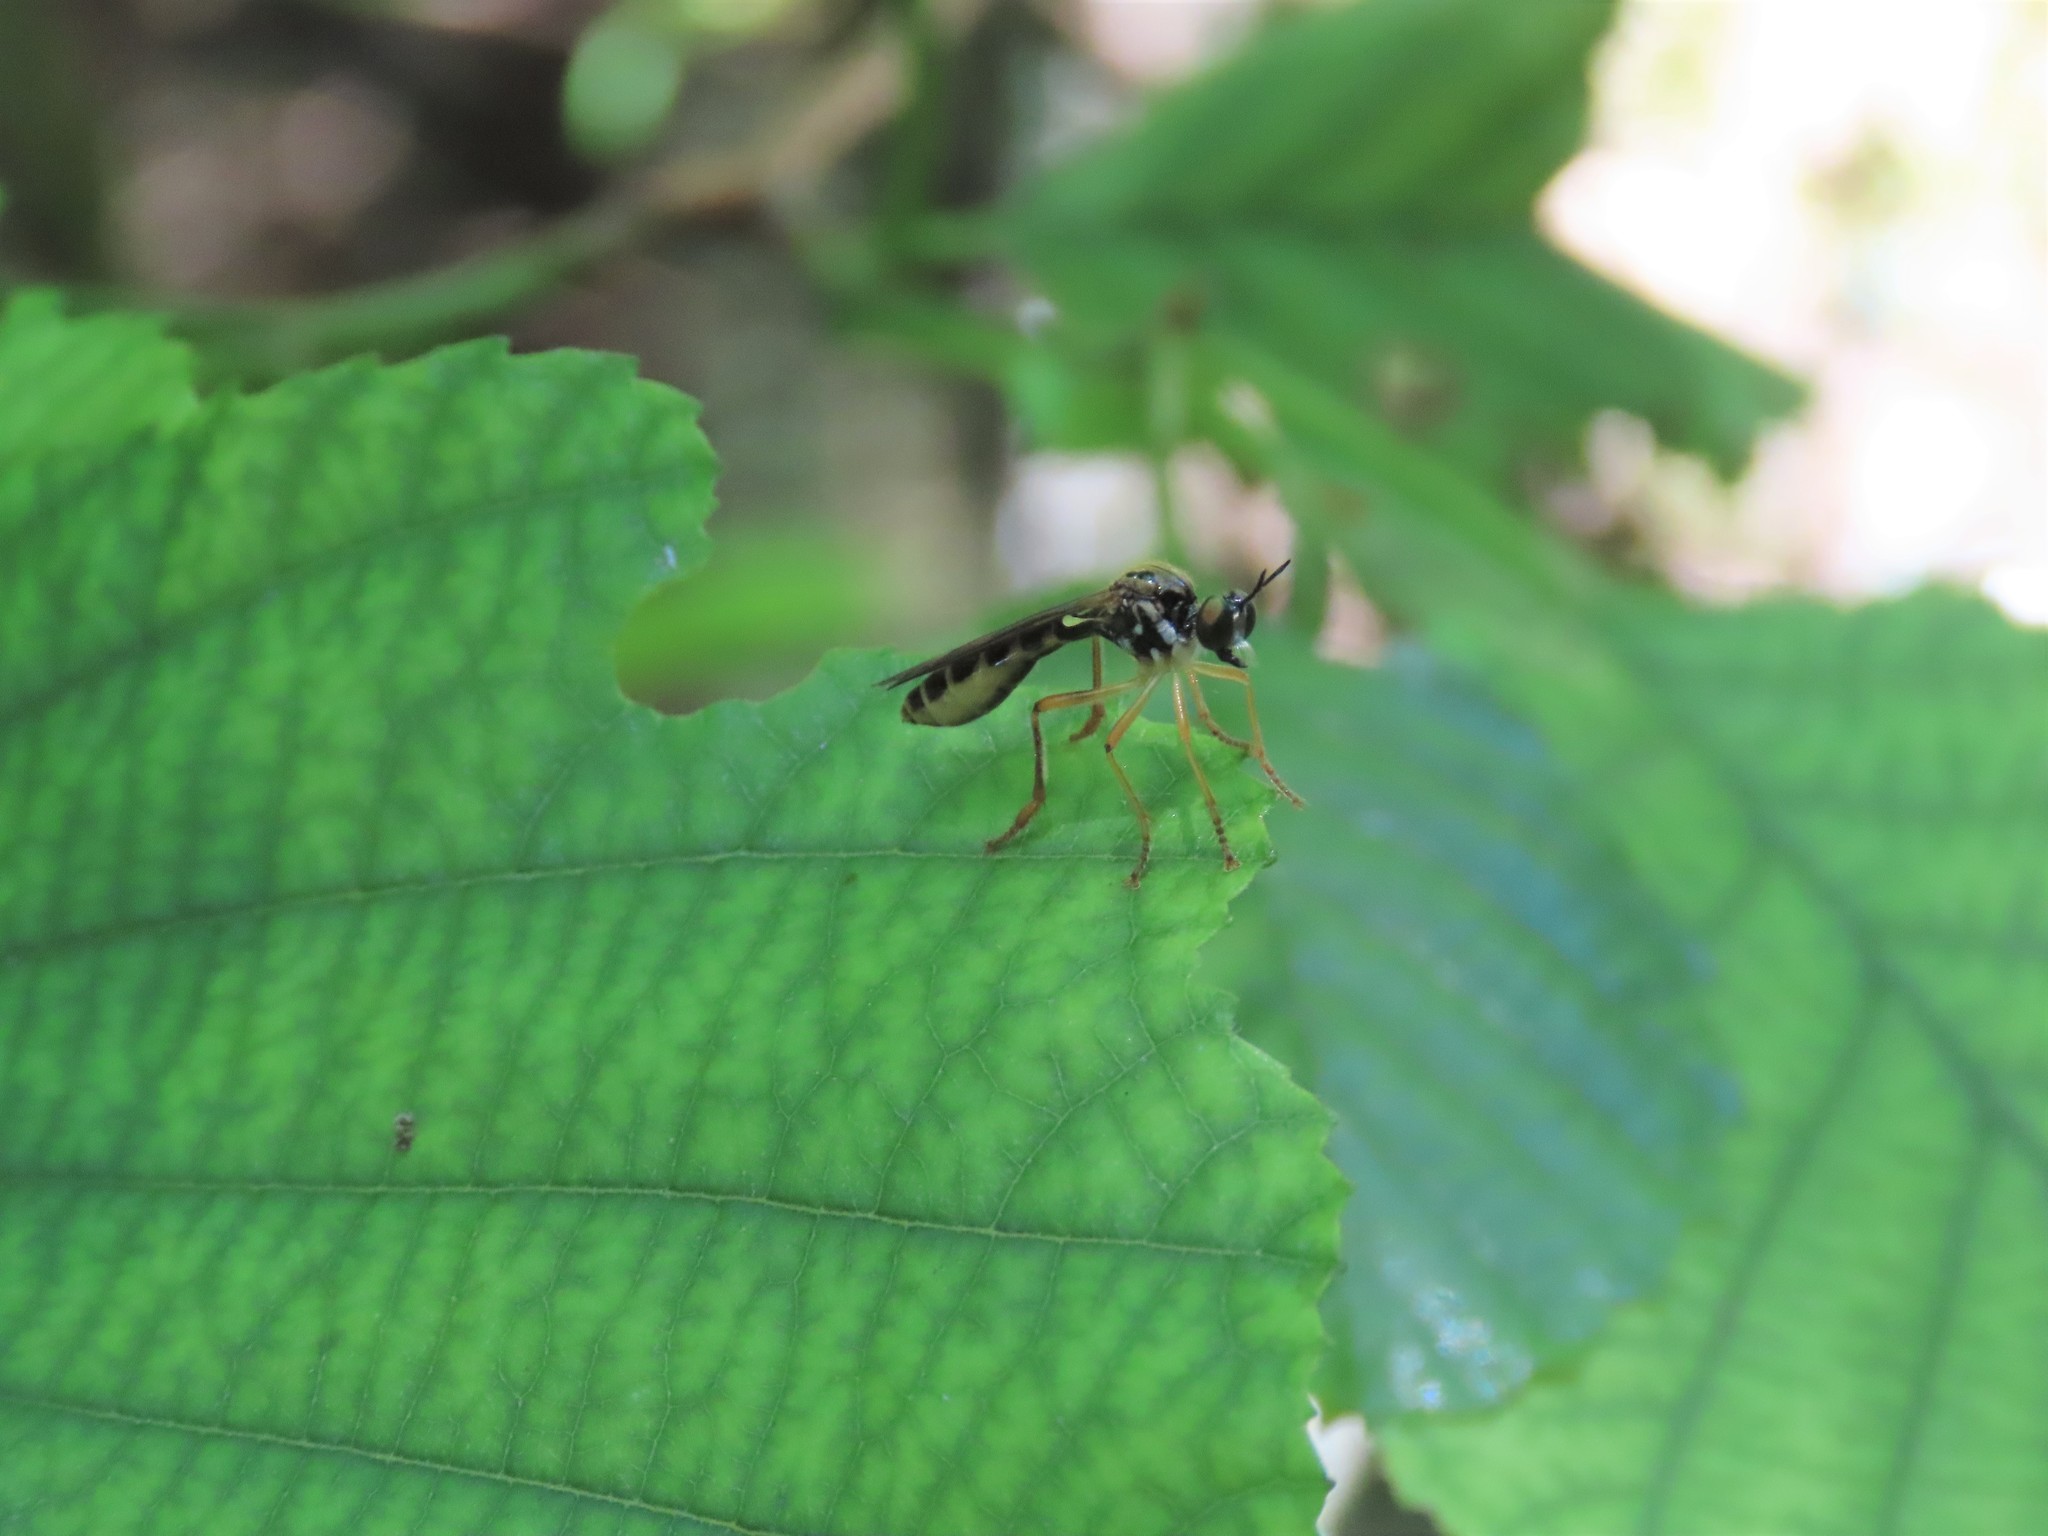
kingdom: Animalia
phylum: Arthropoda
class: Insecta
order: Diptera
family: Asilidae
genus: Dioctria
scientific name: Dioctria linearis
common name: Small yellow-legged robberfly
